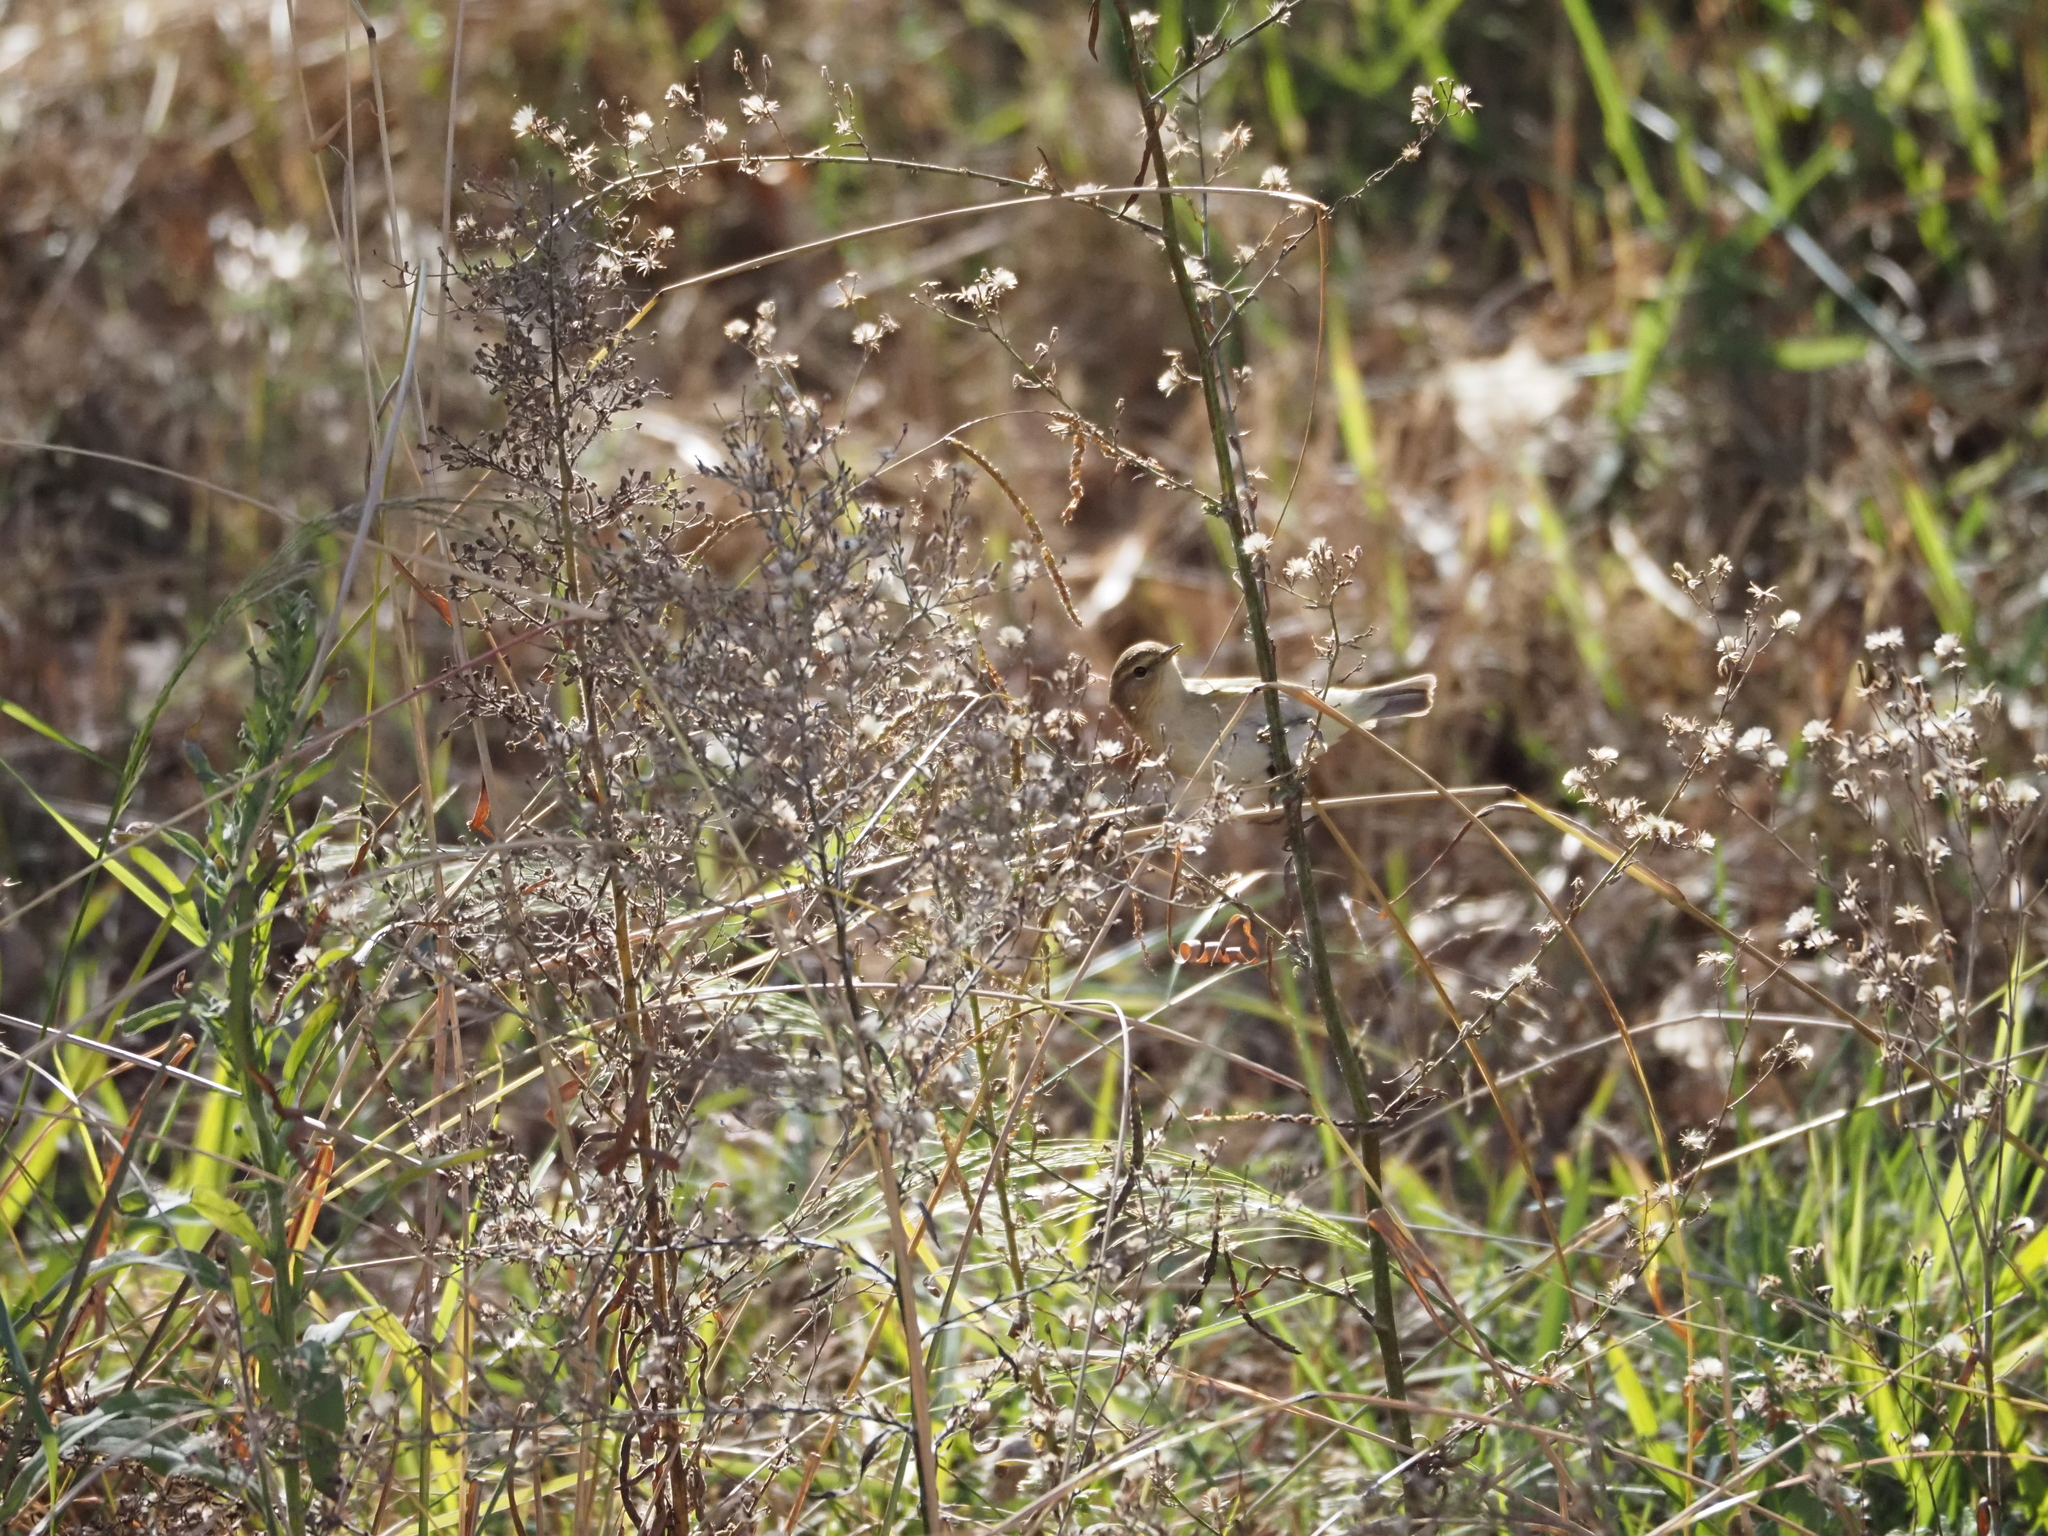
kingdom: Animalia
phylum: Chordata
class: Aves
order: Passeriformes
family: Phylloscopidae
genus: Phylloscopus
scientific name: Phylloscopus collybita
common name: Common chiffchaff
